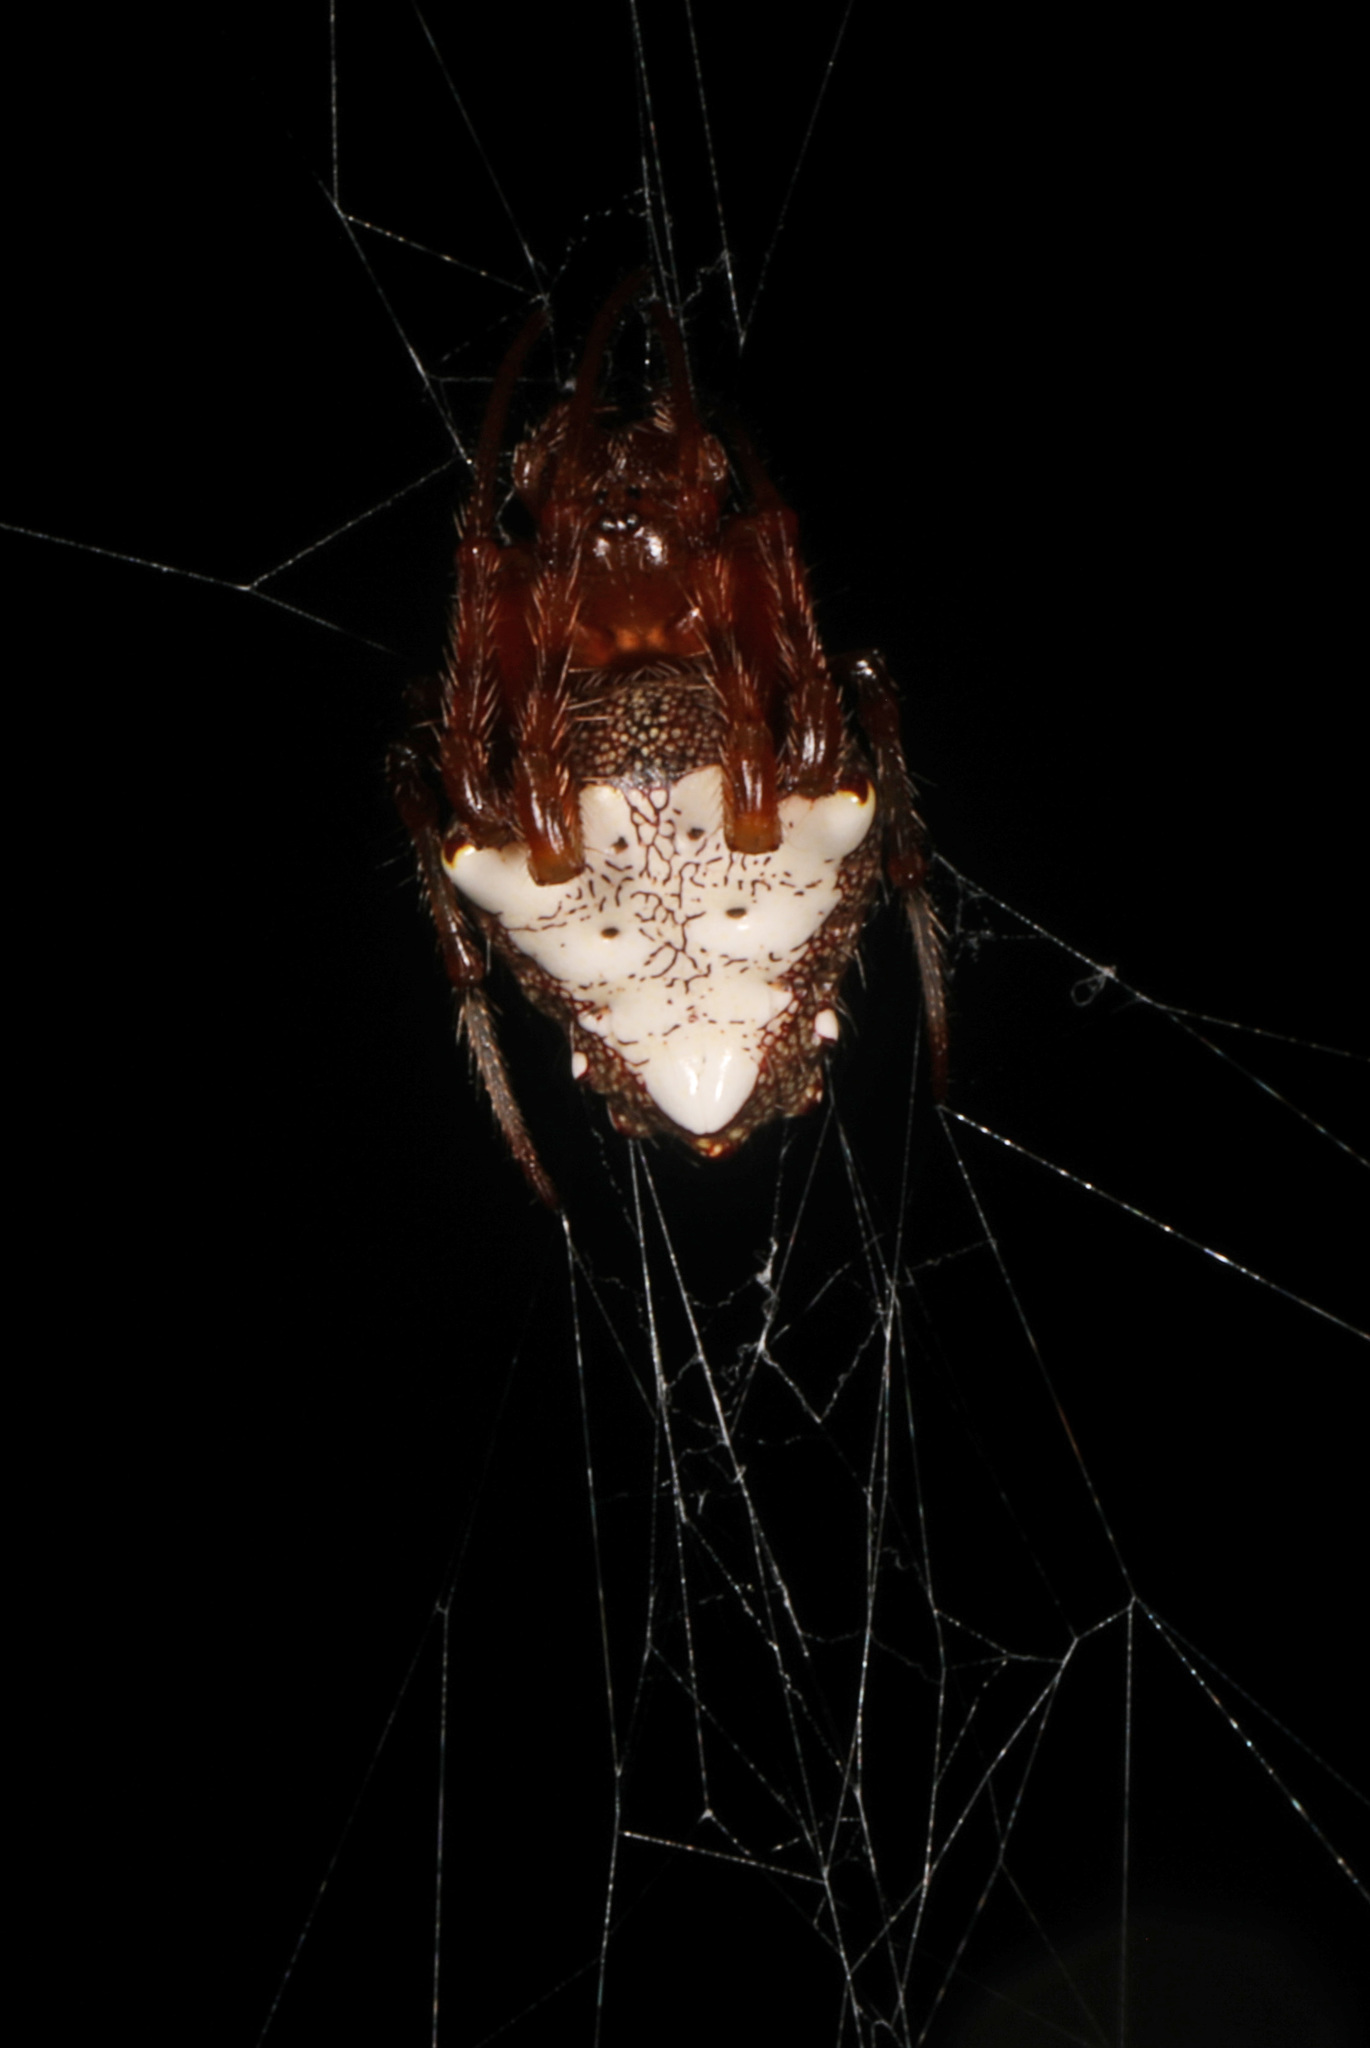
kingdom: Animalia
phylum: Arthropoda
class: Arachnida
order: Araneae
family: Araneidae
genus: Verrucosa
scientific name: Verrucosa arenata
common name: Orb weavers
